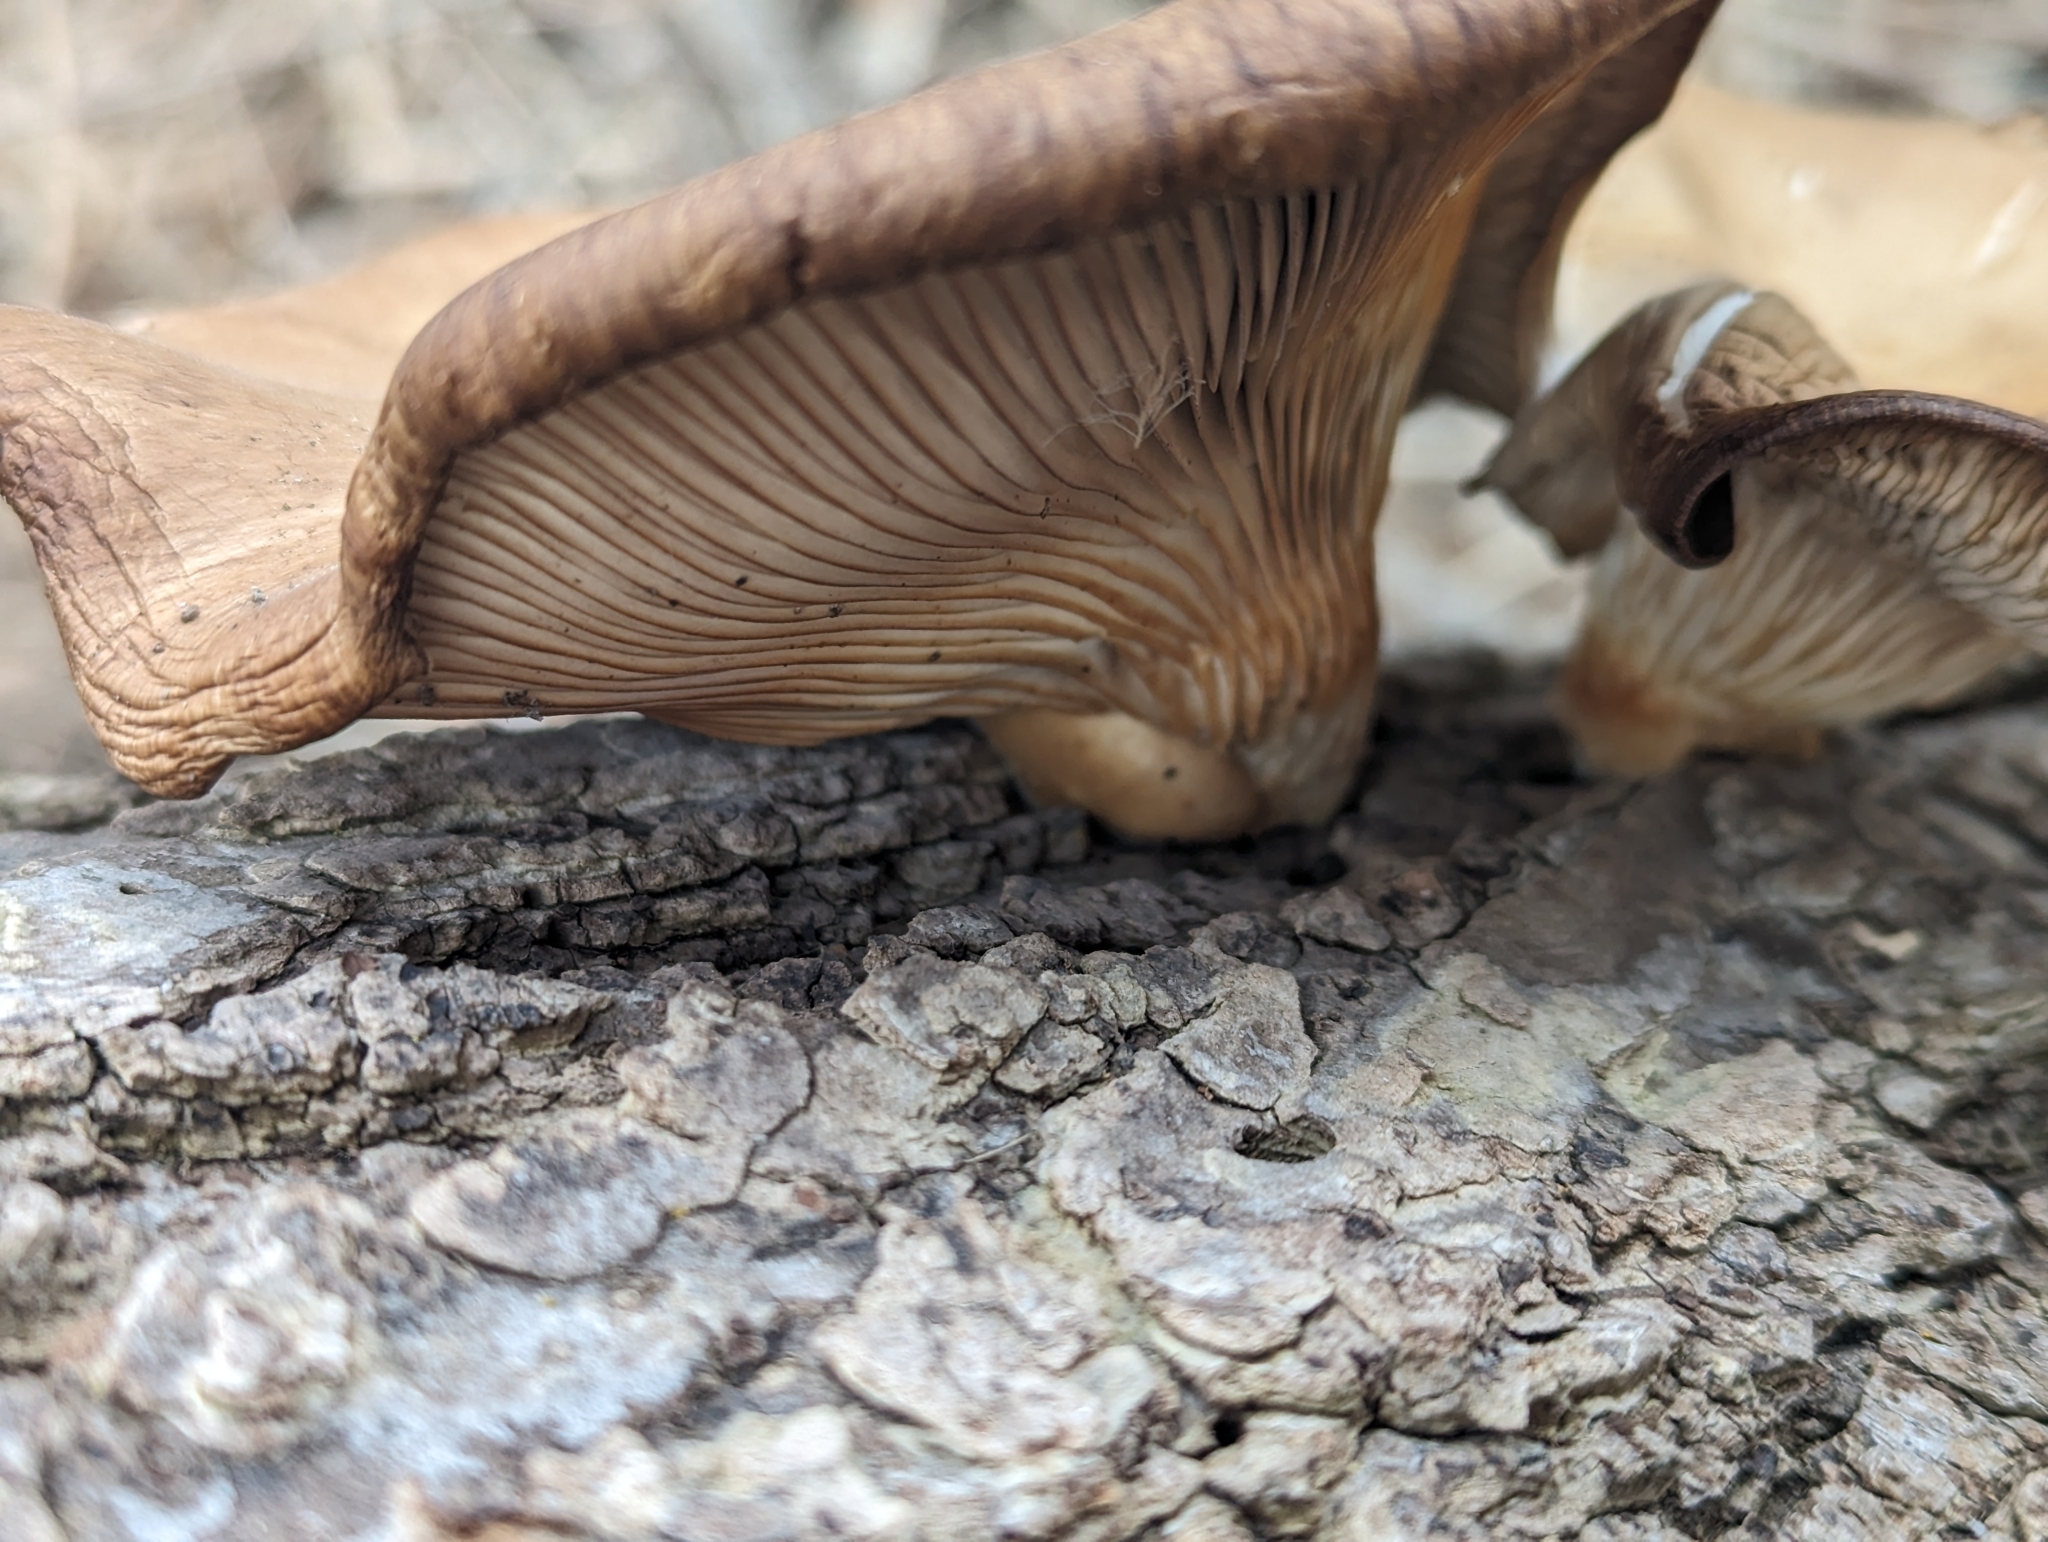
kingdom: Fungi
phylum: Basidiomycota
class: Agaricomycetes
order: Agaricales
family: Pleurotaceae
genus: Pleurotus
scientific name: Pleurotus ostreatus
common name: Oyster mushroom
